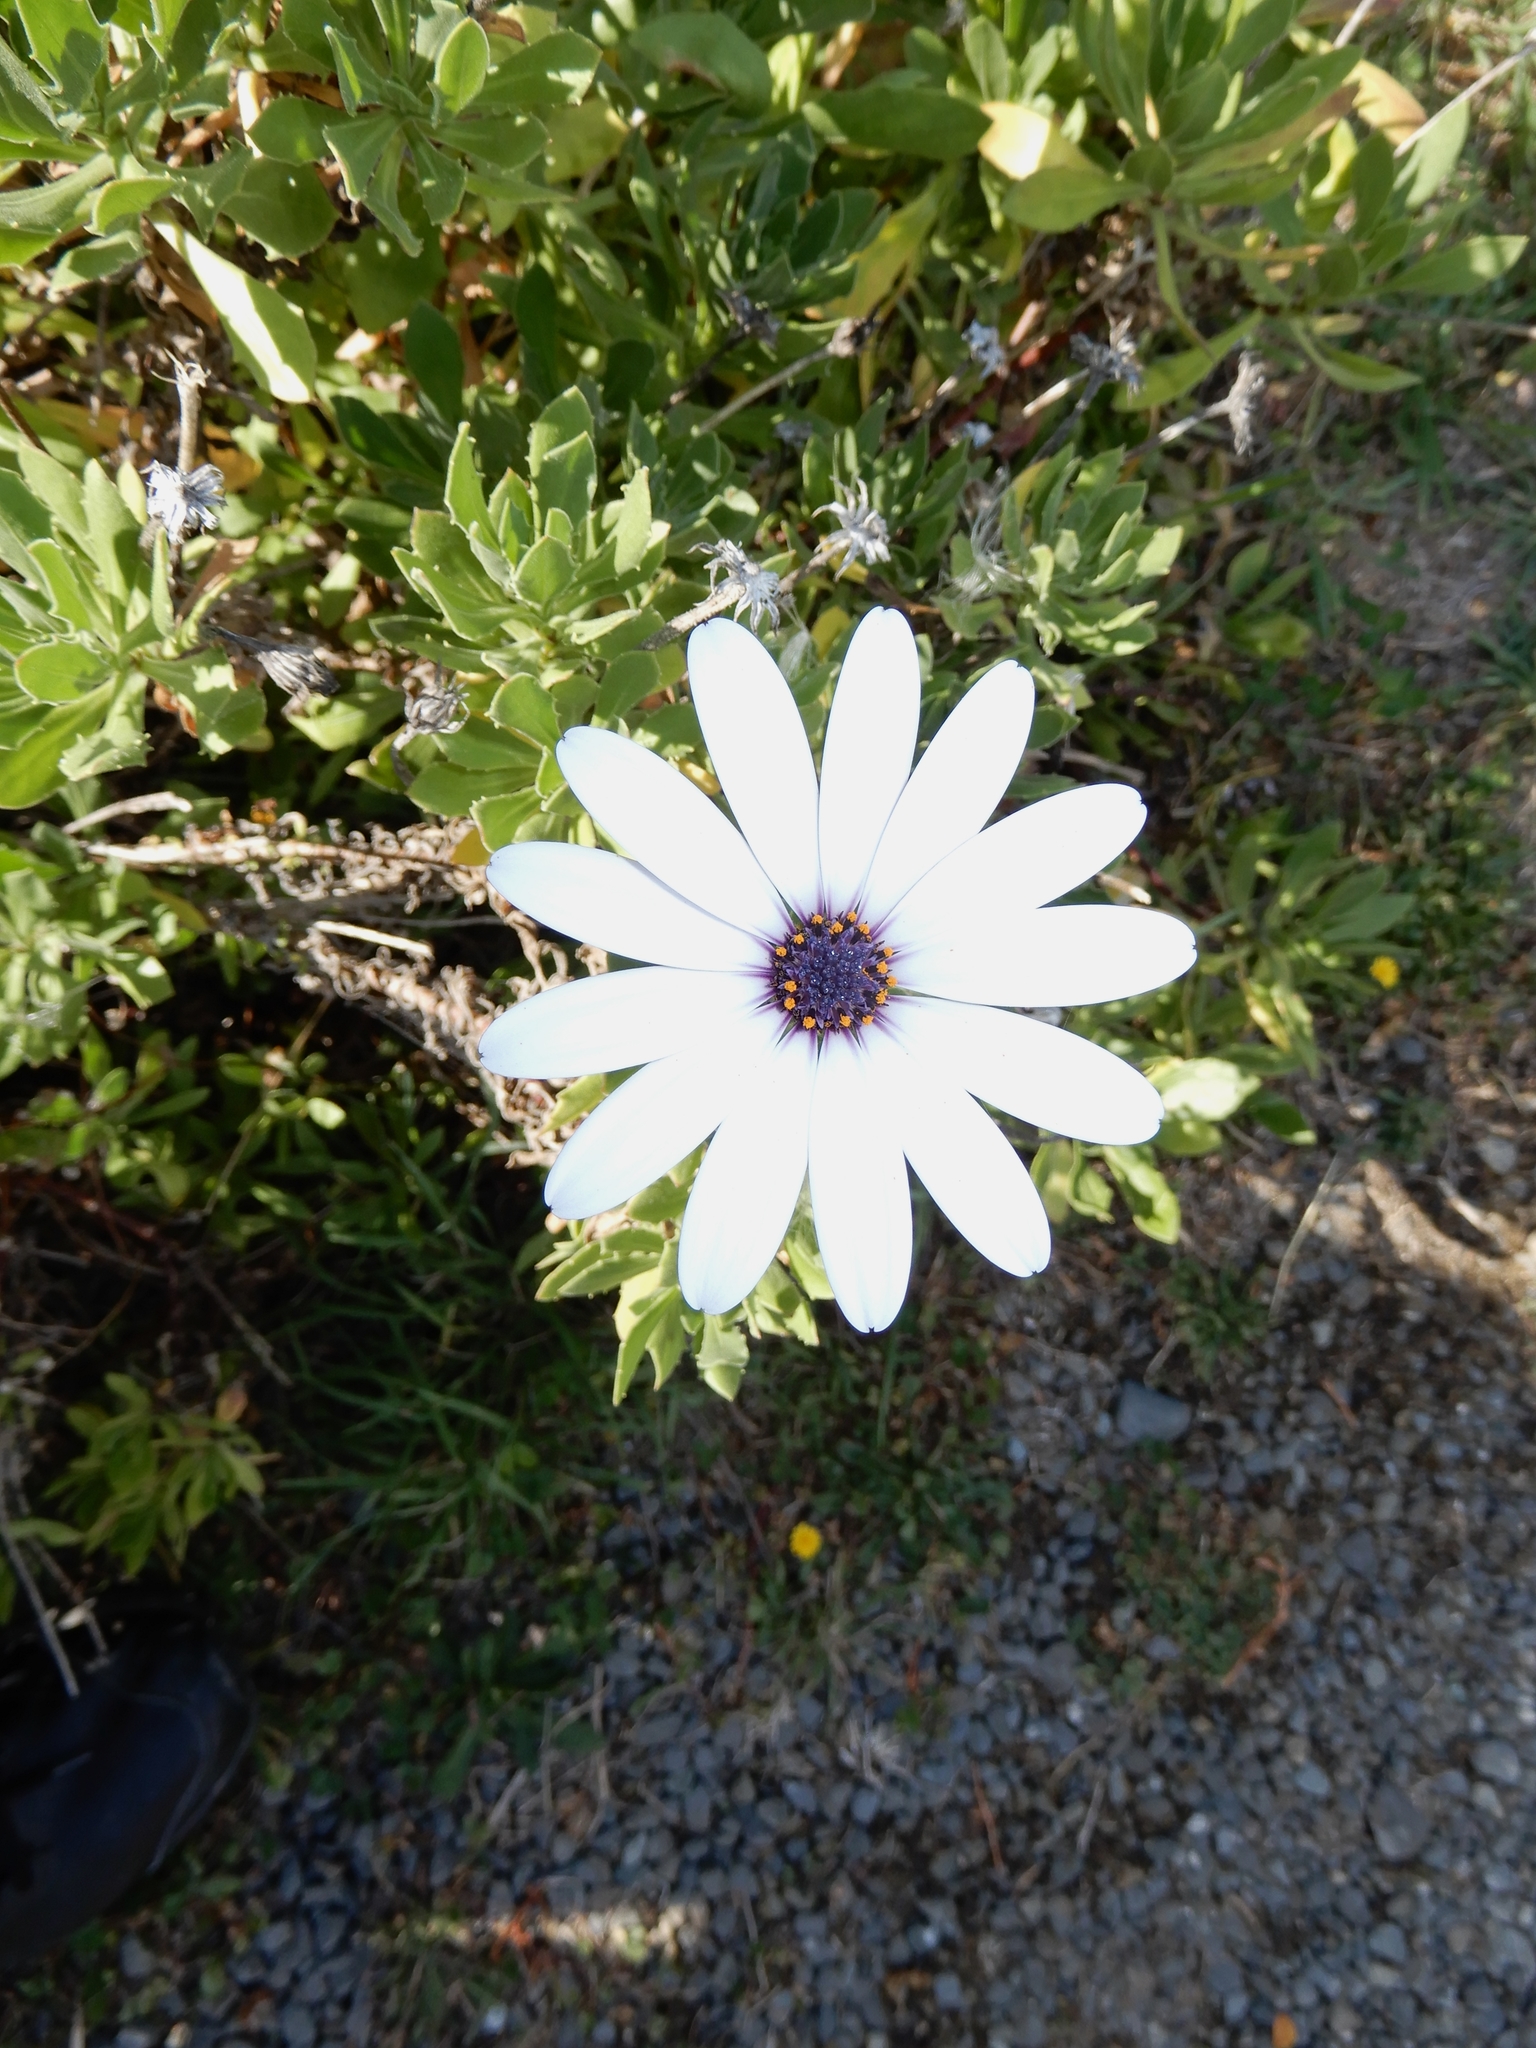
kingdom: Plantae
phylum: Tracheophyta
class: Magnoliopsida
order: Asterales
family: Asteraceae
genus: Dimorphotheca
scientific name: Dimorphotheca ecklonis
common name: Vanstaden's river daisy
